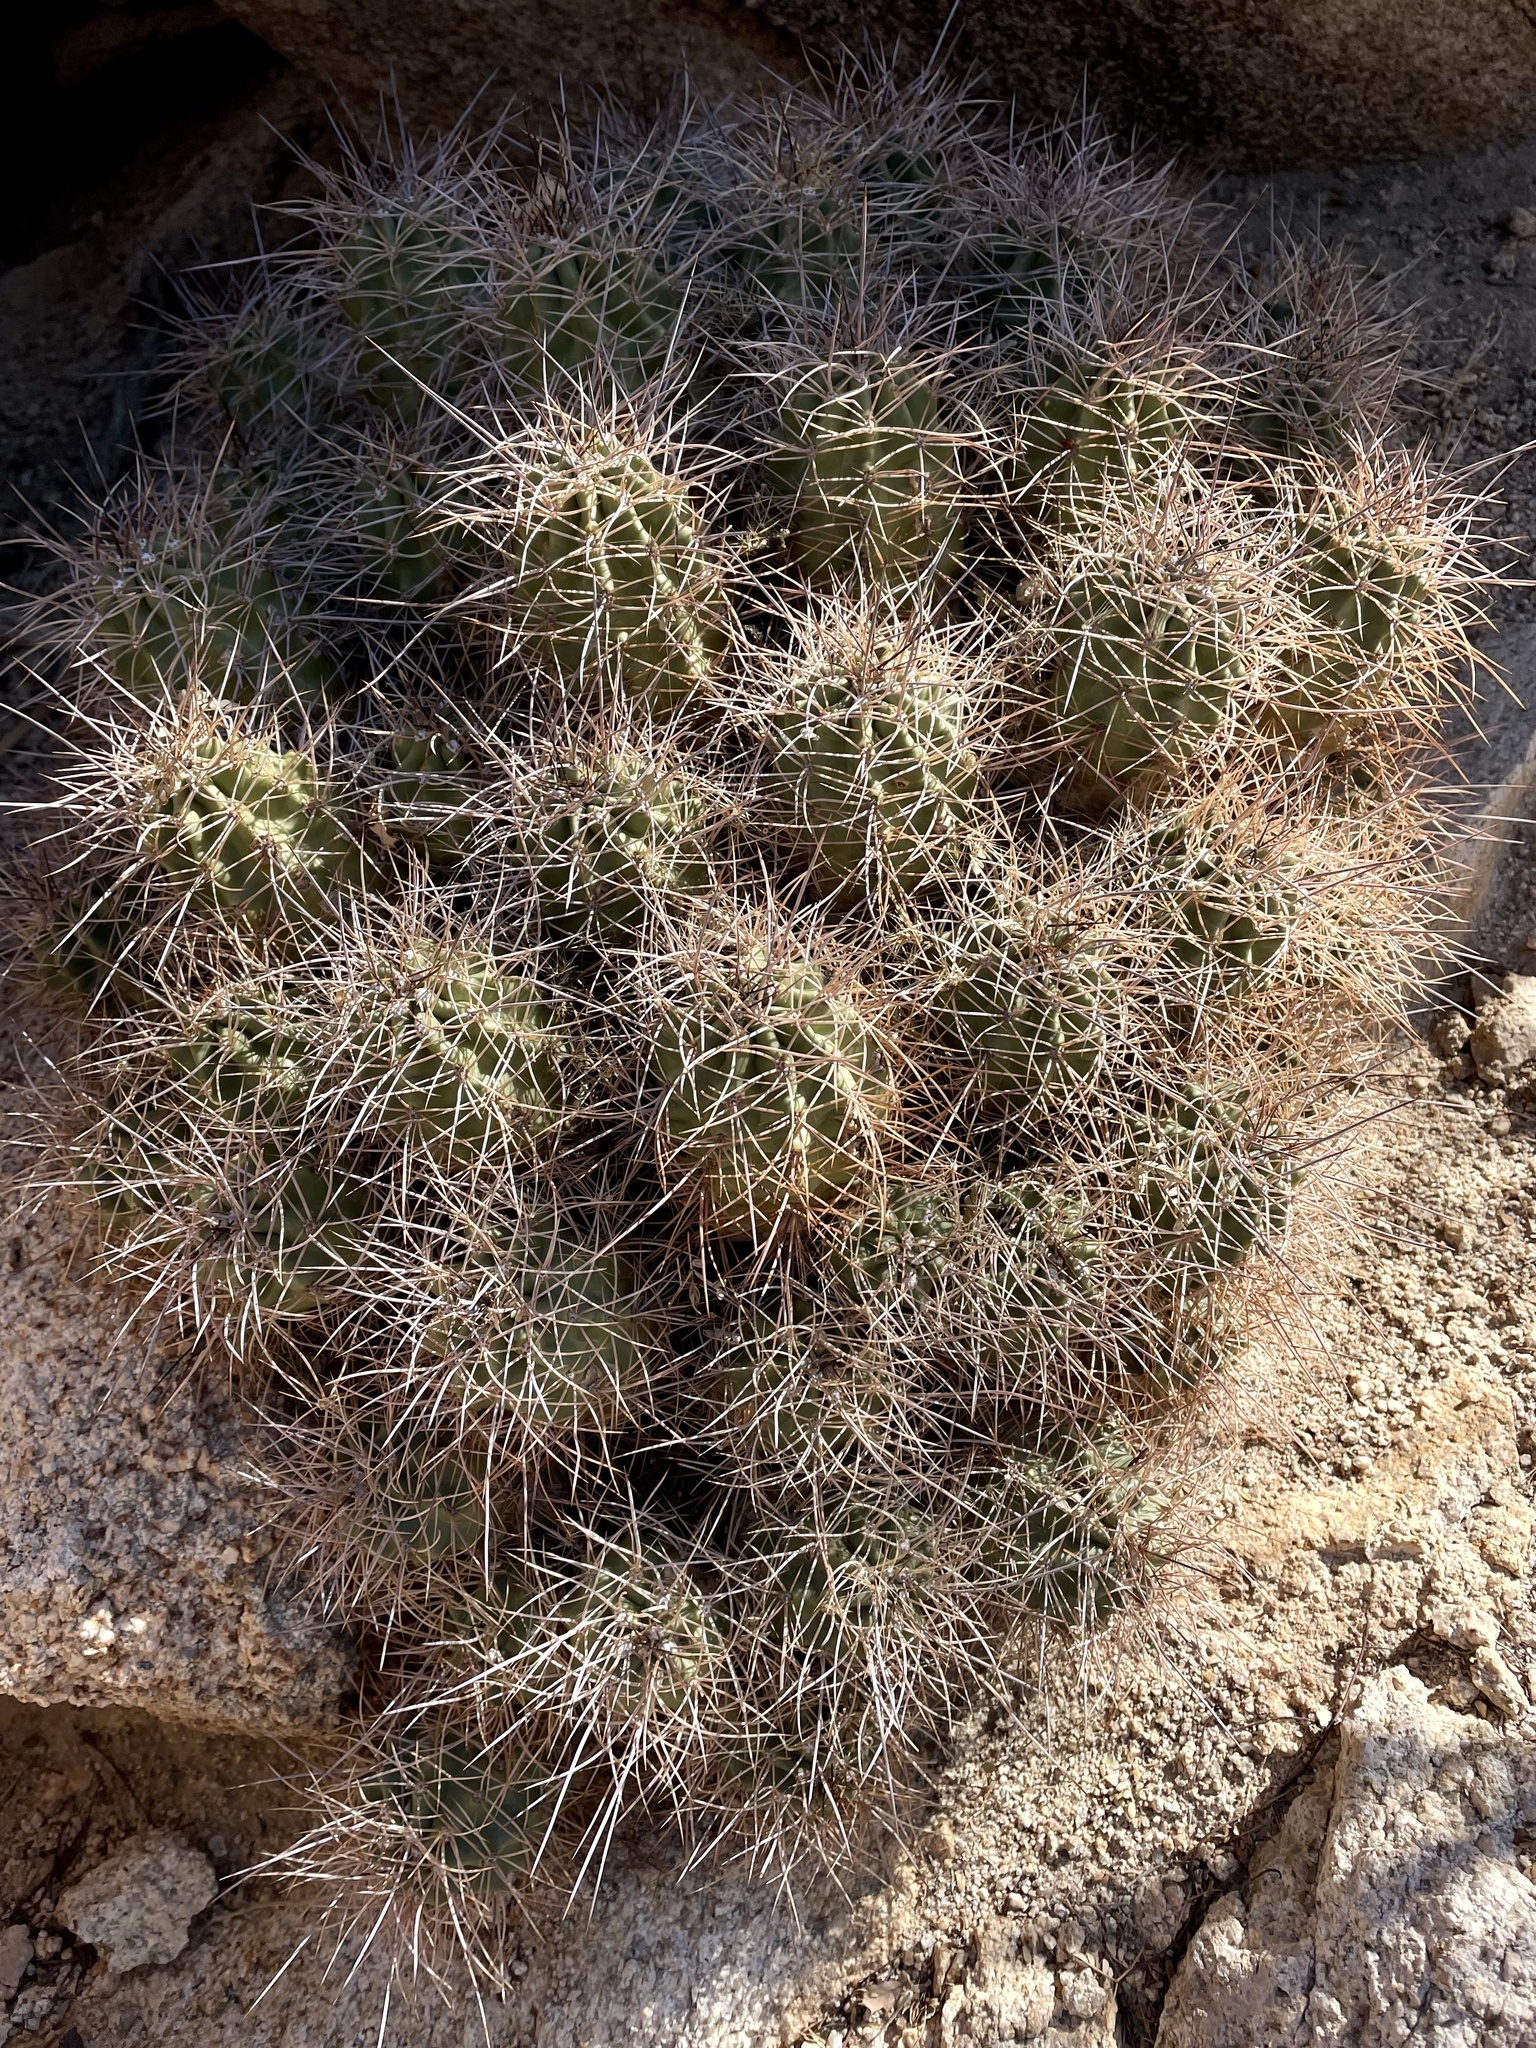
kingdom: Plantae
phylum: Tracheophyta
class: Magnoliopsida
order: Caryophyllales
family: Cactaceae
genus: Echinocereus
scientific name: Echinocereus triglochidiatus
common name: Claretcup hedgehog
